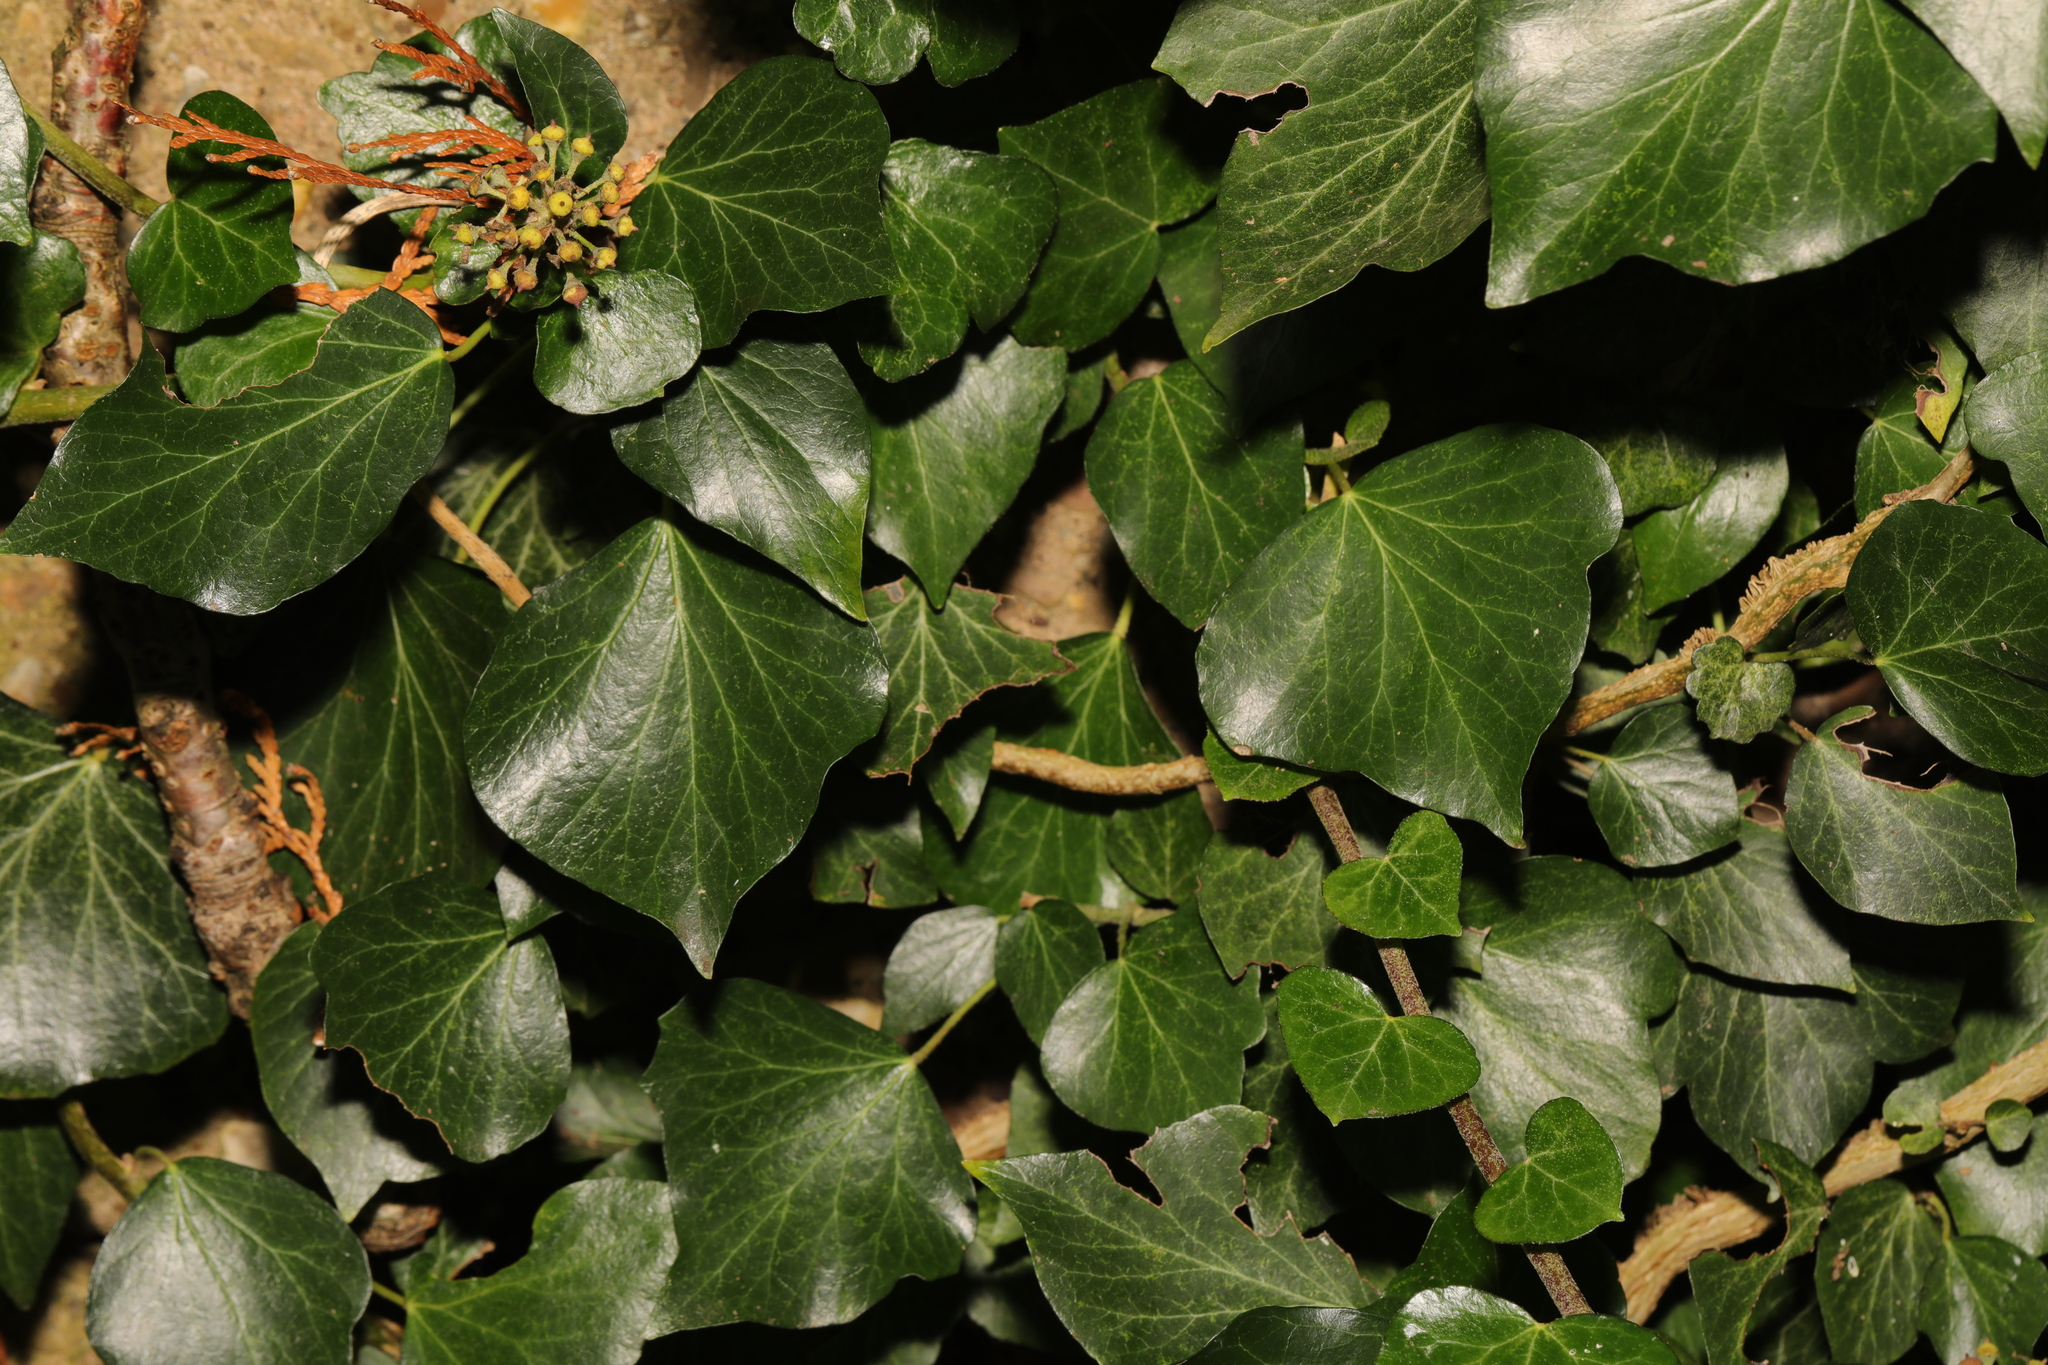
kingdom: Plantae
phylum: Tracheophyta
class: Magnoliopsida
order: Apiales
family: Araliaceae
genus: Hedera
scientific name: Hedera helix
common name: Ivy
